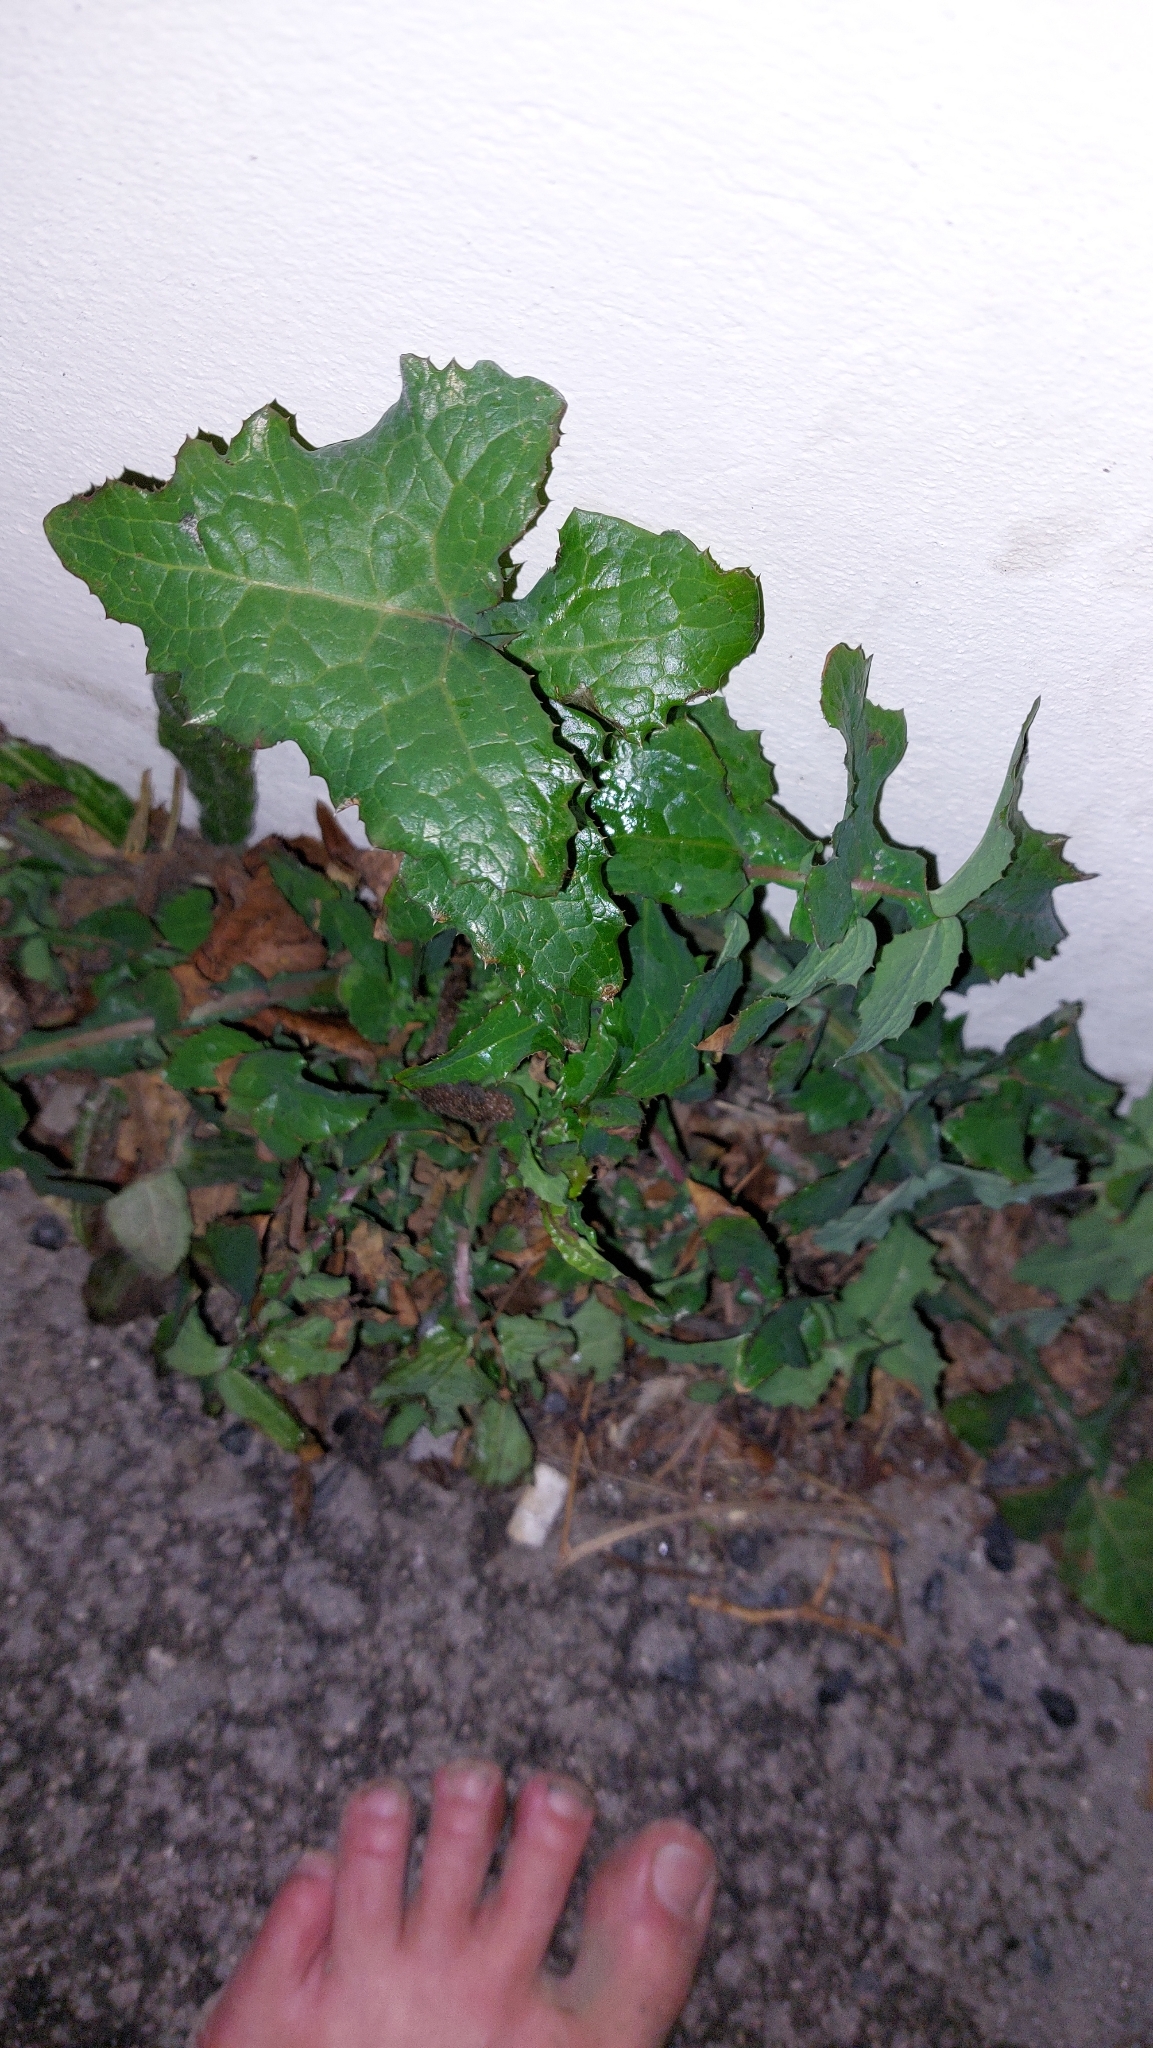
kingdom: Plantae
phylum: Tracheophyta
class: Magnoliopsida
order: Asterales
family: Asteraceae
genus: Sonchus
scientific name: Sonchus oleraceus
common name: Common sowthistle
